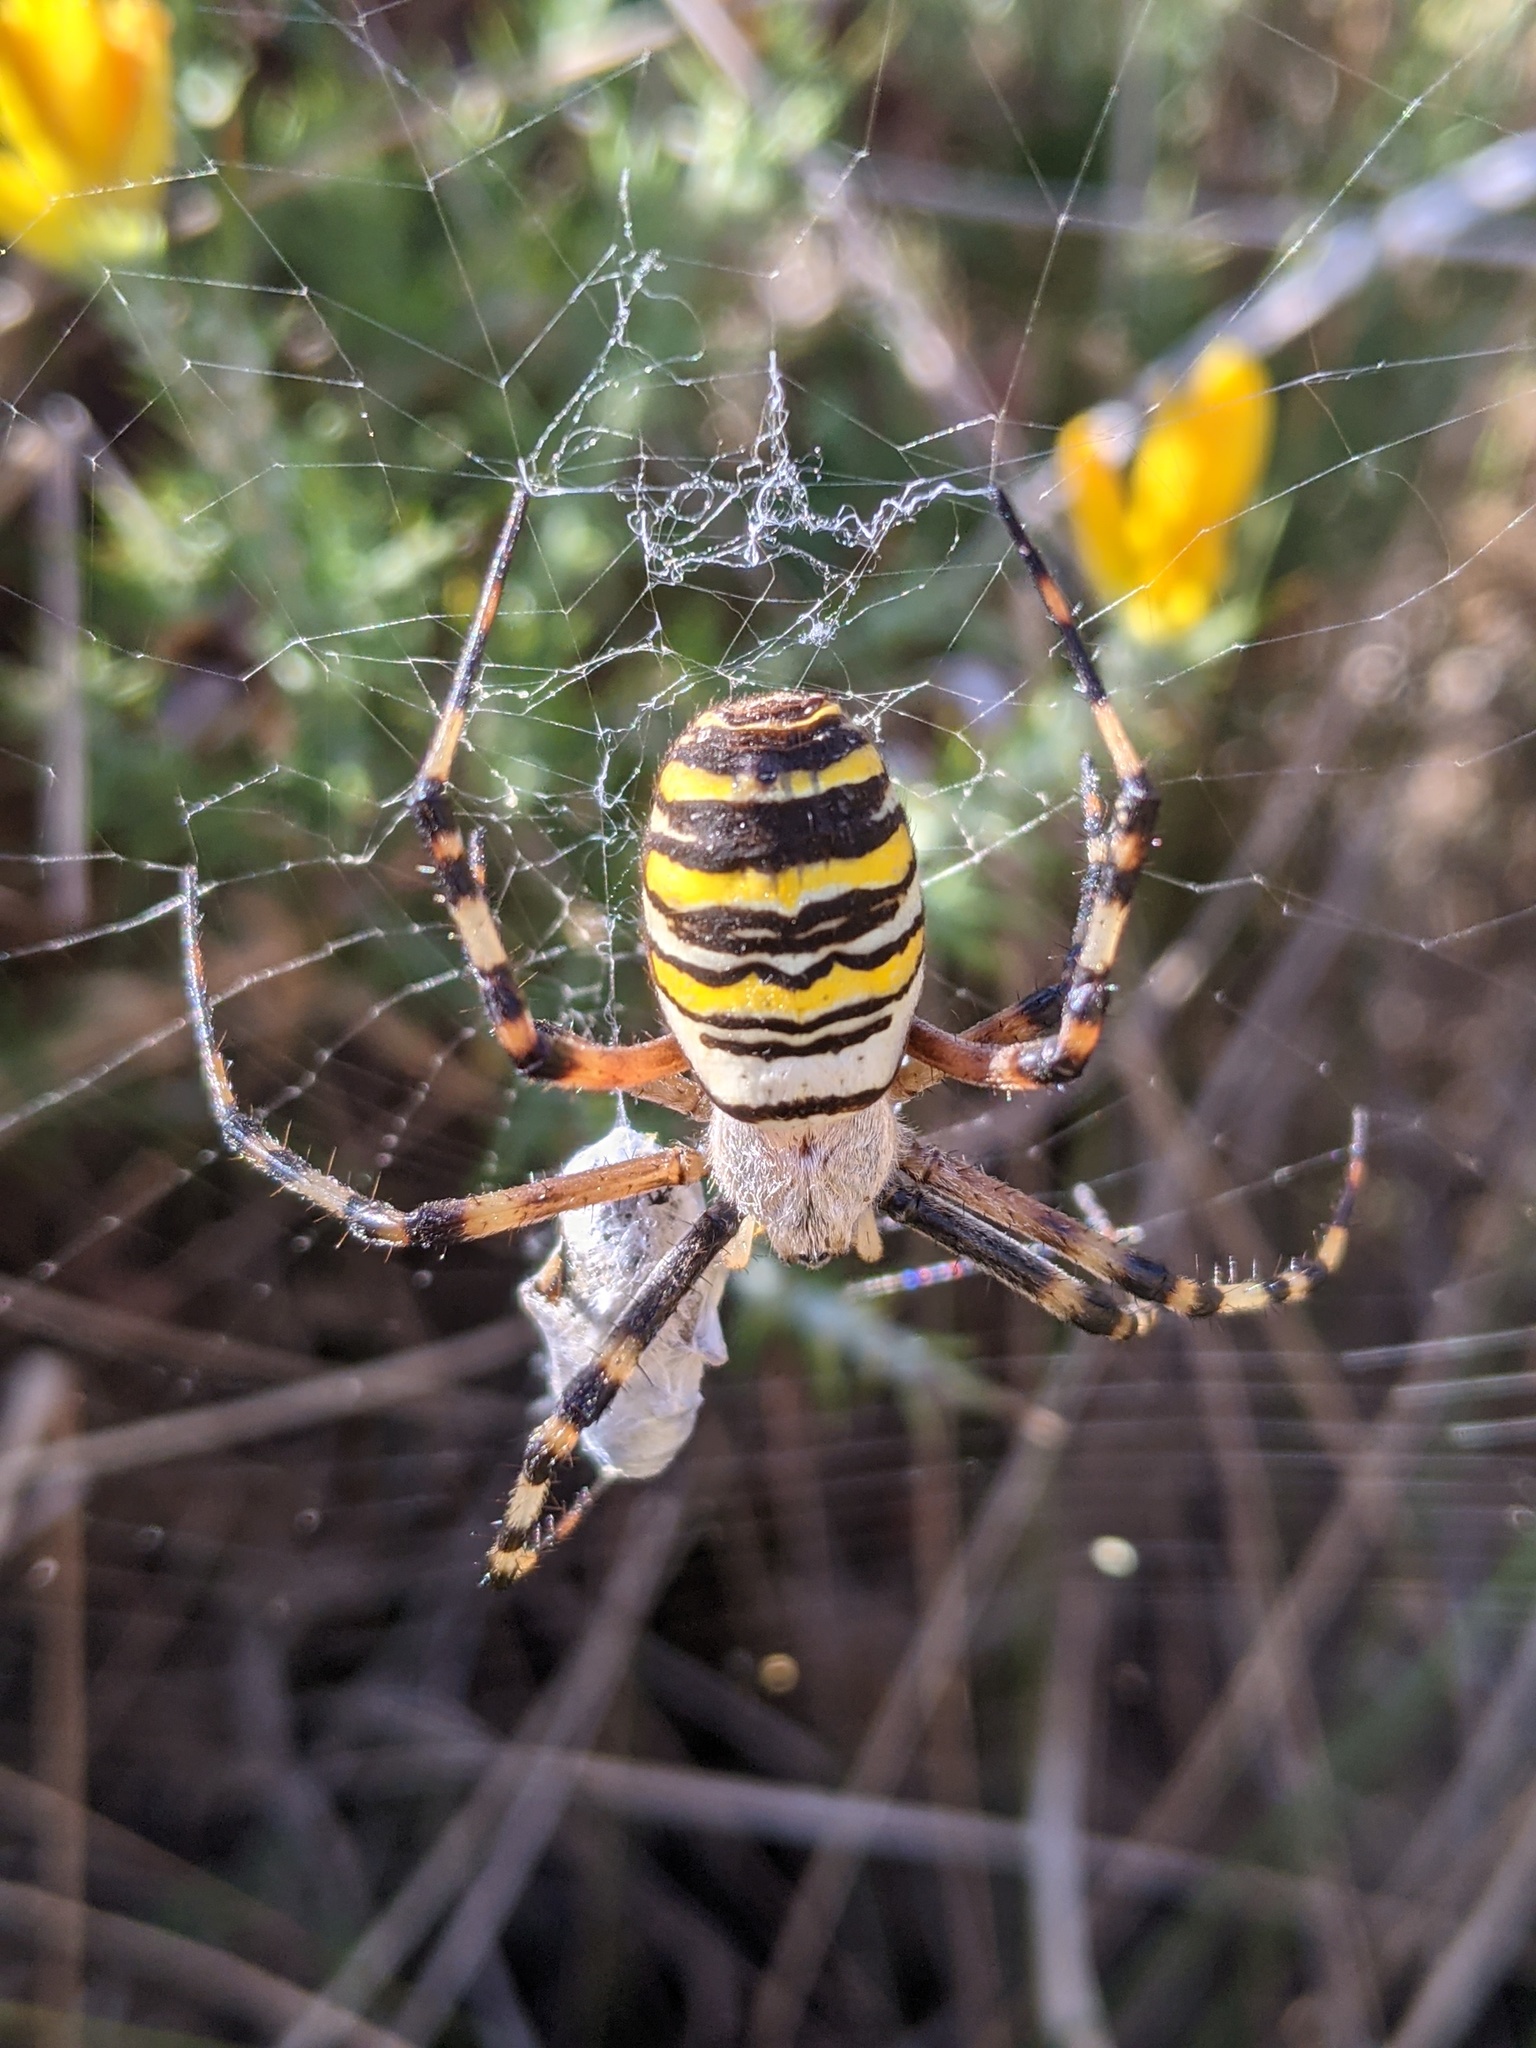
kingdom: Animalia
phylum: Arthropoda
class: Arachnida
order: Araneae
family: Araneidae
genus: Argiope
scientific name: Argiope bruennichi
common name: Wasp spider
